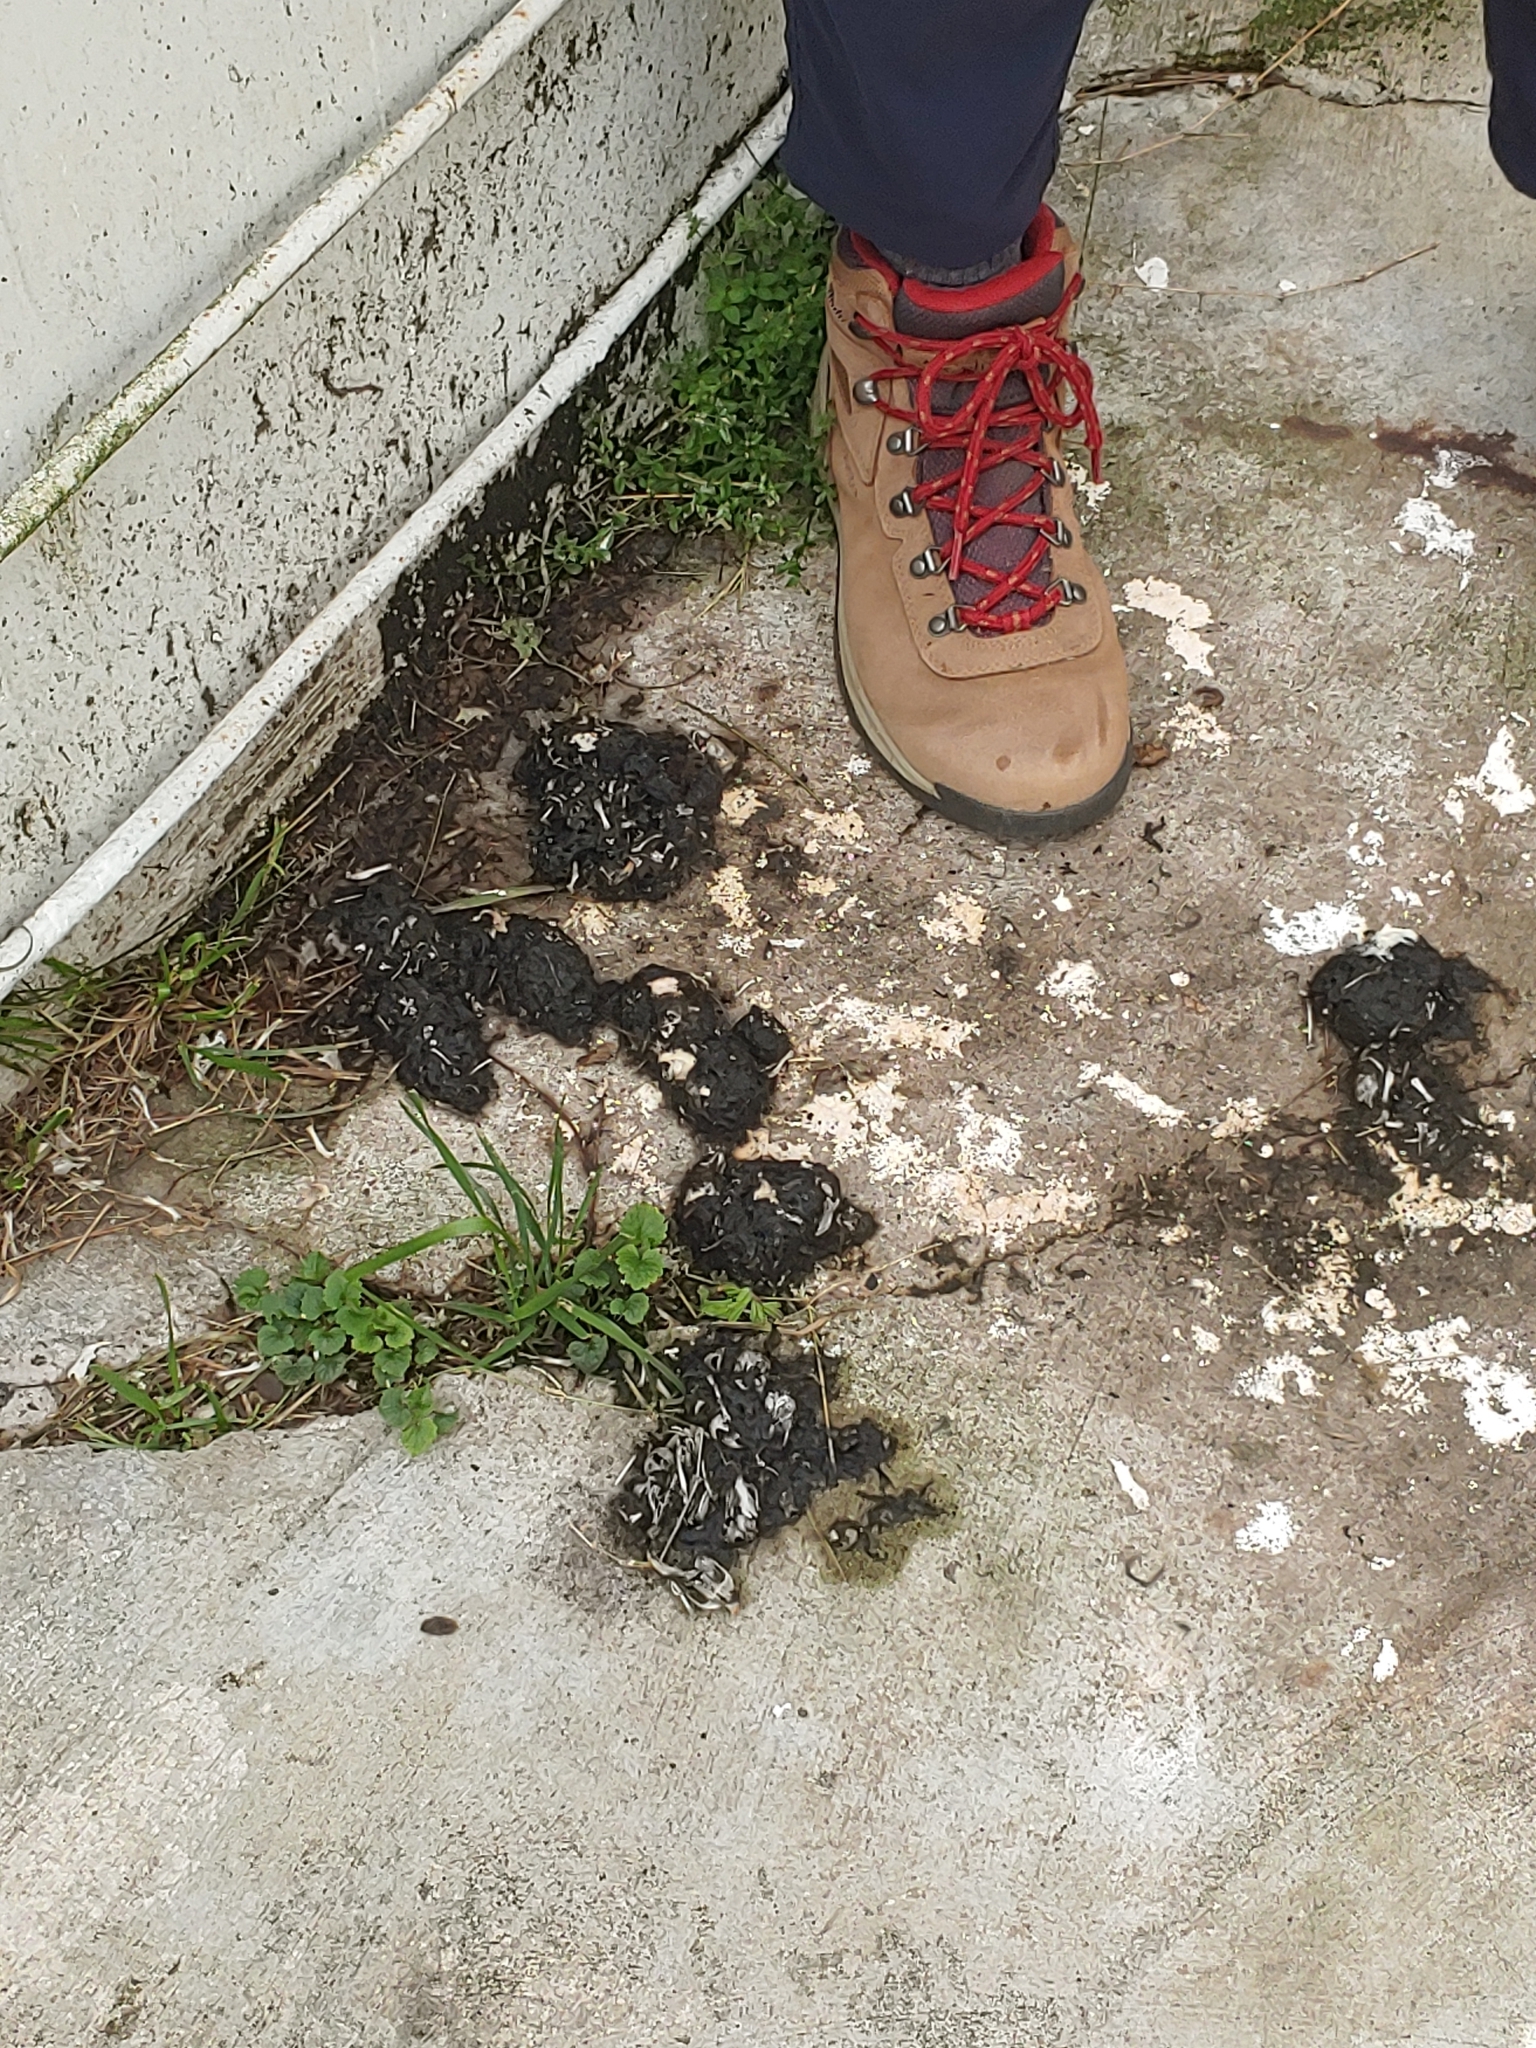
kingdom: Animalia
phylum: Chordata
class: Aves
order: Strigiformes
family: Tytonidae
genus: Tyto
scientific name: Tyto alba
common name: Barn owl
